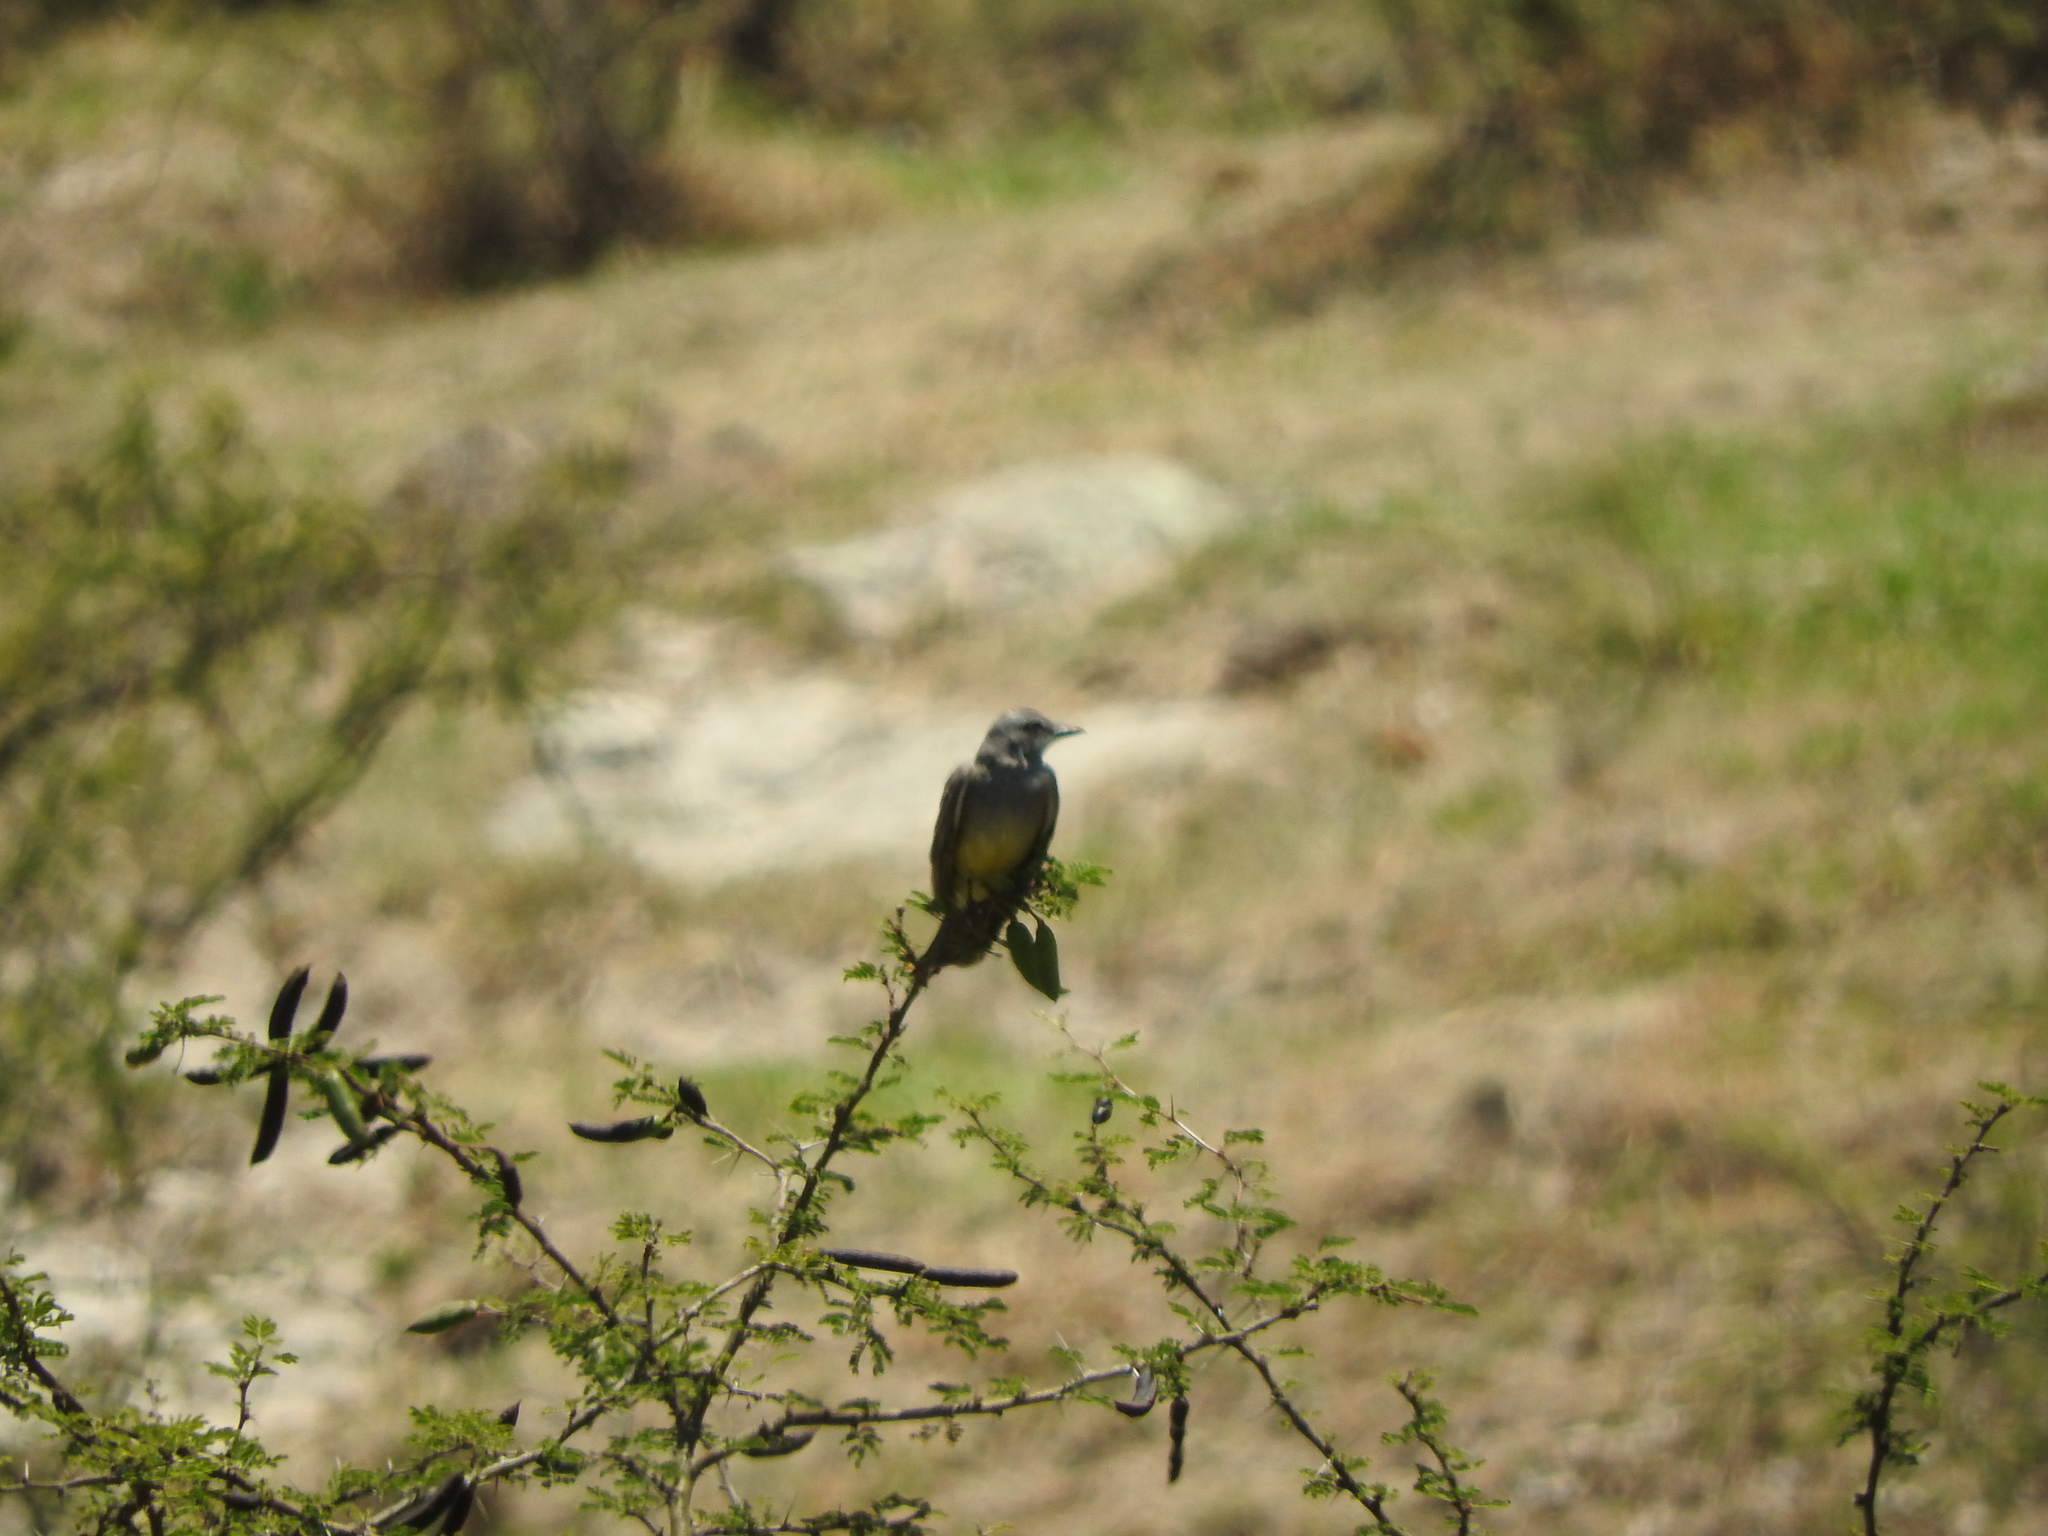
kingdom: Animalia
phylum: Chordata
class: Aves
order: Passeriformes
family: Tyrannidae
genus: Tyrannus
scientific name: Tyrannus vociferans
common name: Cassin's kingbird
